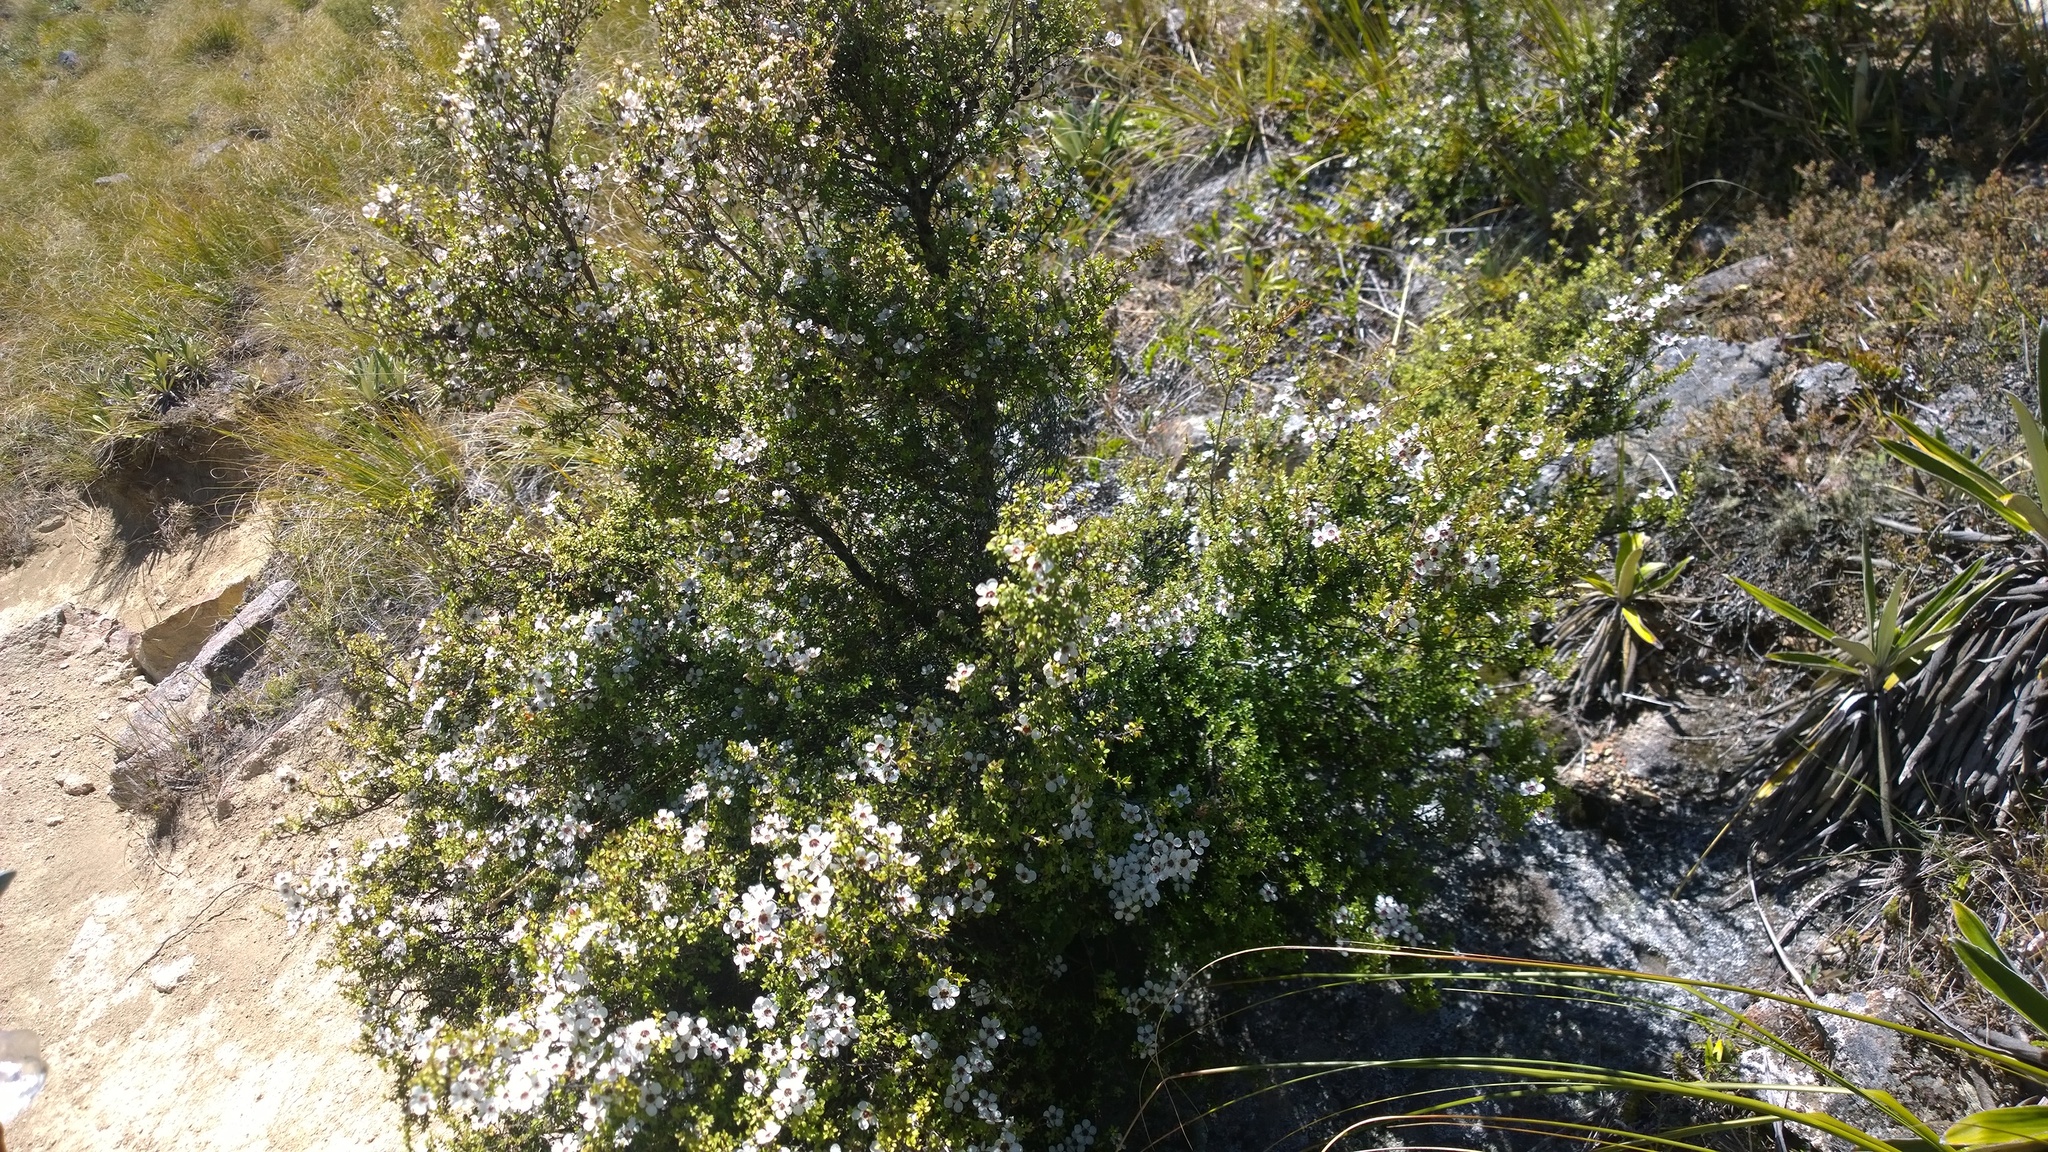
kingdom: Plantae
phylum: Tracheophyta
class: Magnoliopsida
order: Myrtales
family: Myrtaceae
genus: Leptospermum
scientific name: Leptospermum scoparium
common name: Broom tea-tree
